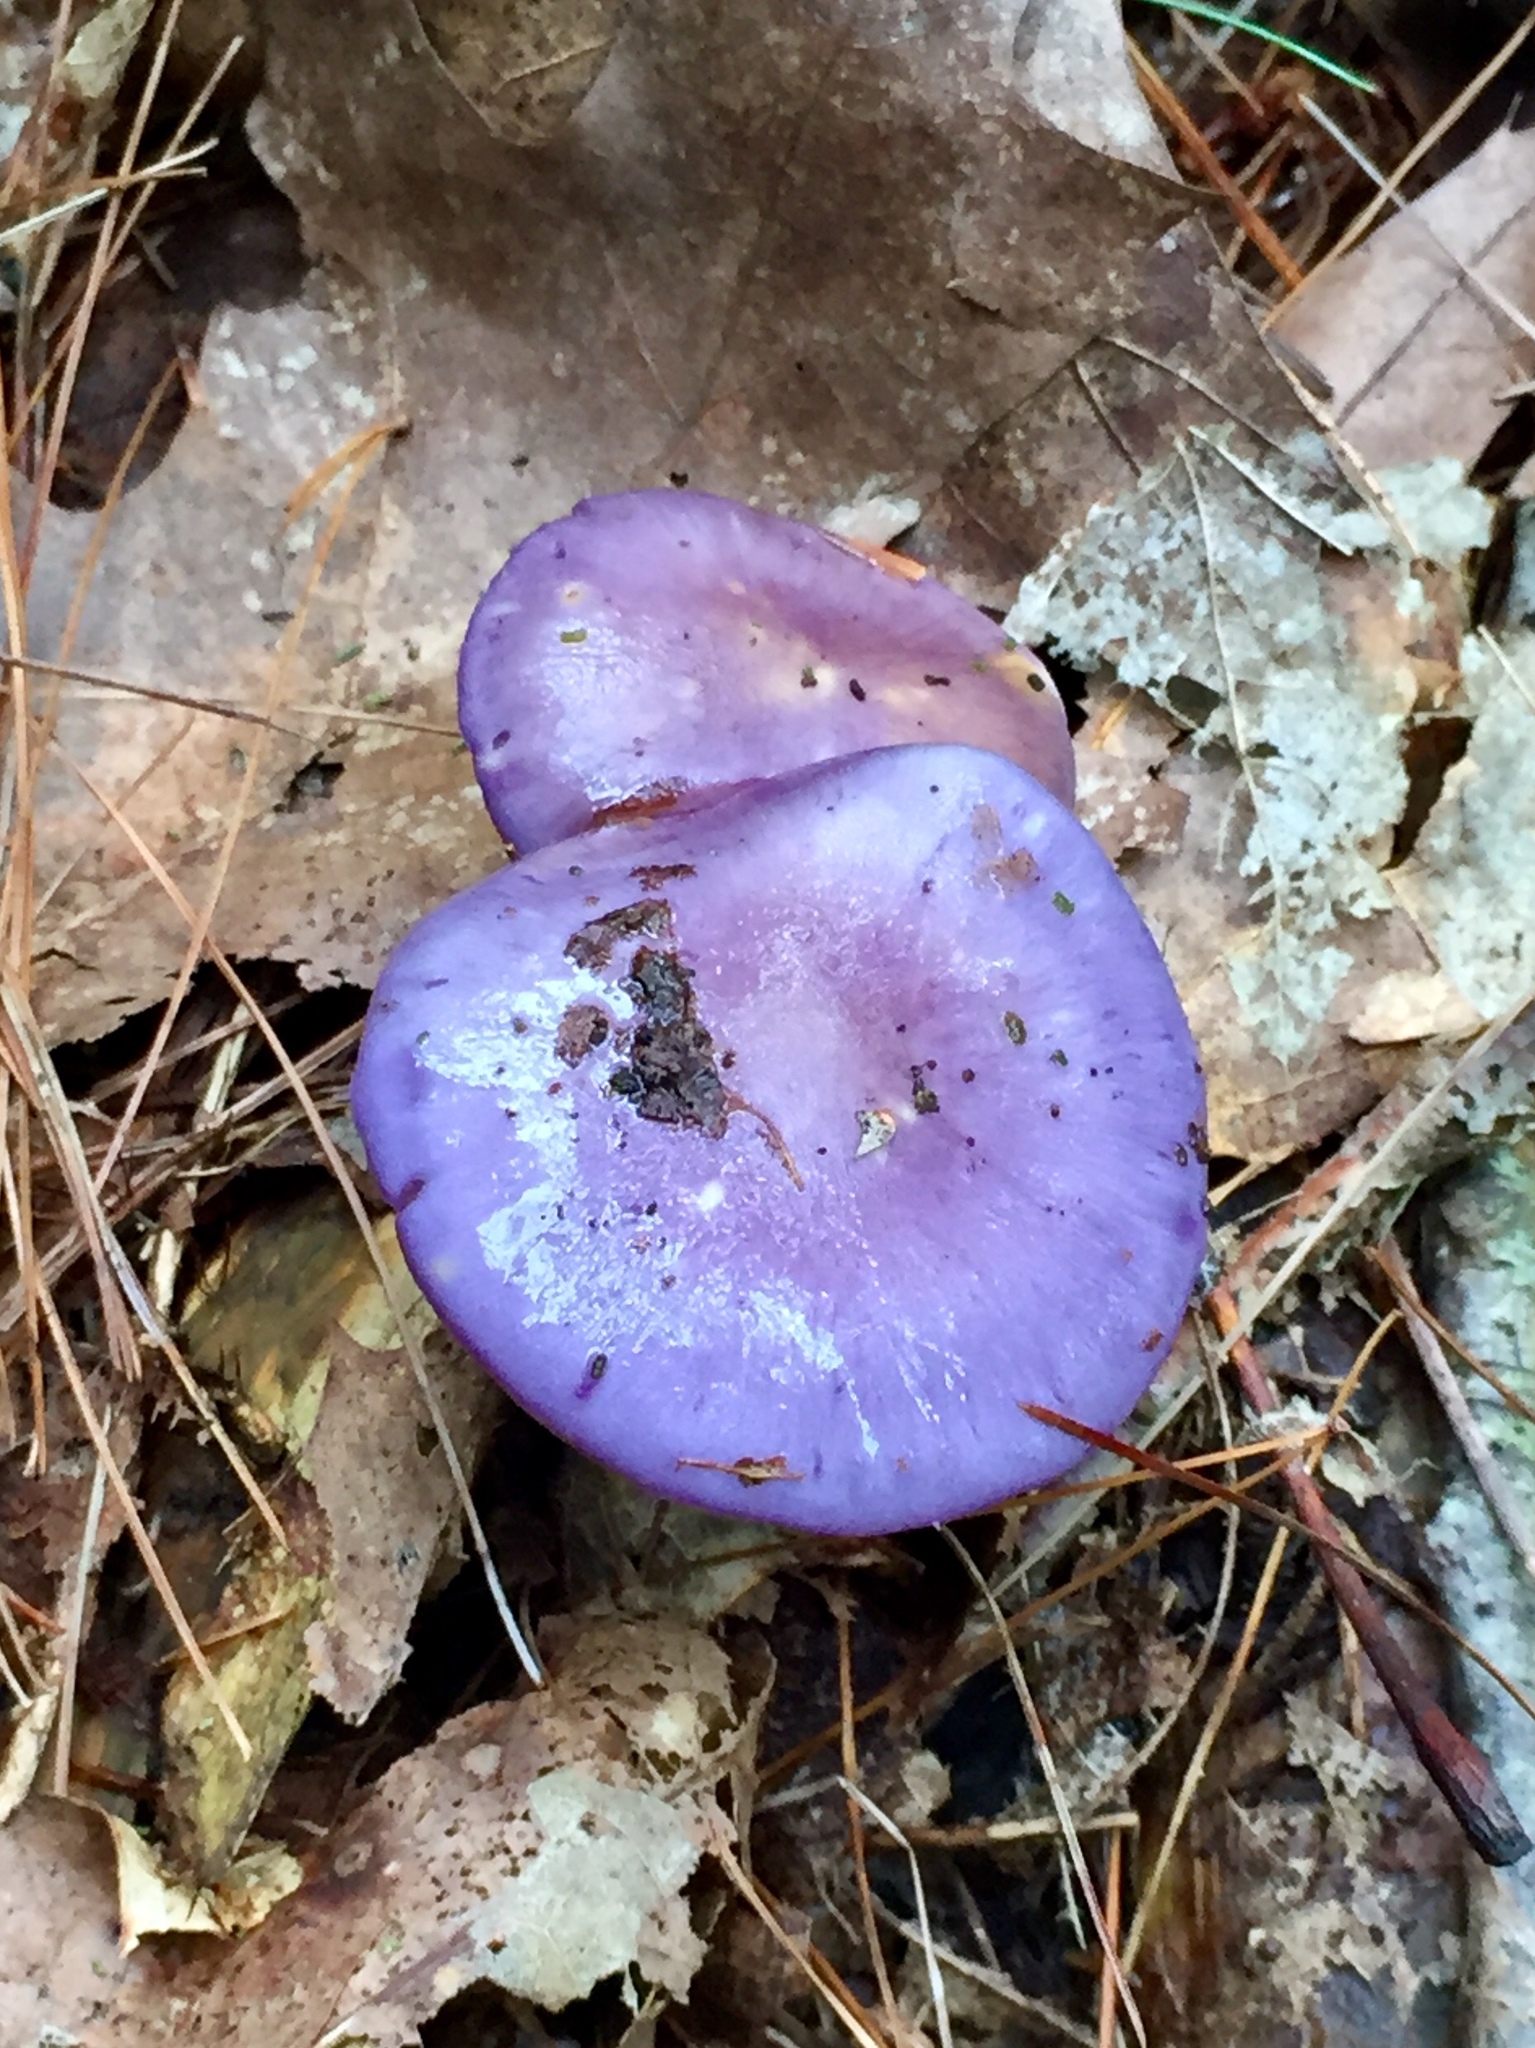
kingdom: Fungi
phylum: Basidiomycota
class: Agaricomycetes
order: Agaricales
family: Cortinariaceae
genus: Cortinarius
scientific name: Cortinarius iodes
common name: Viscid violet cort
